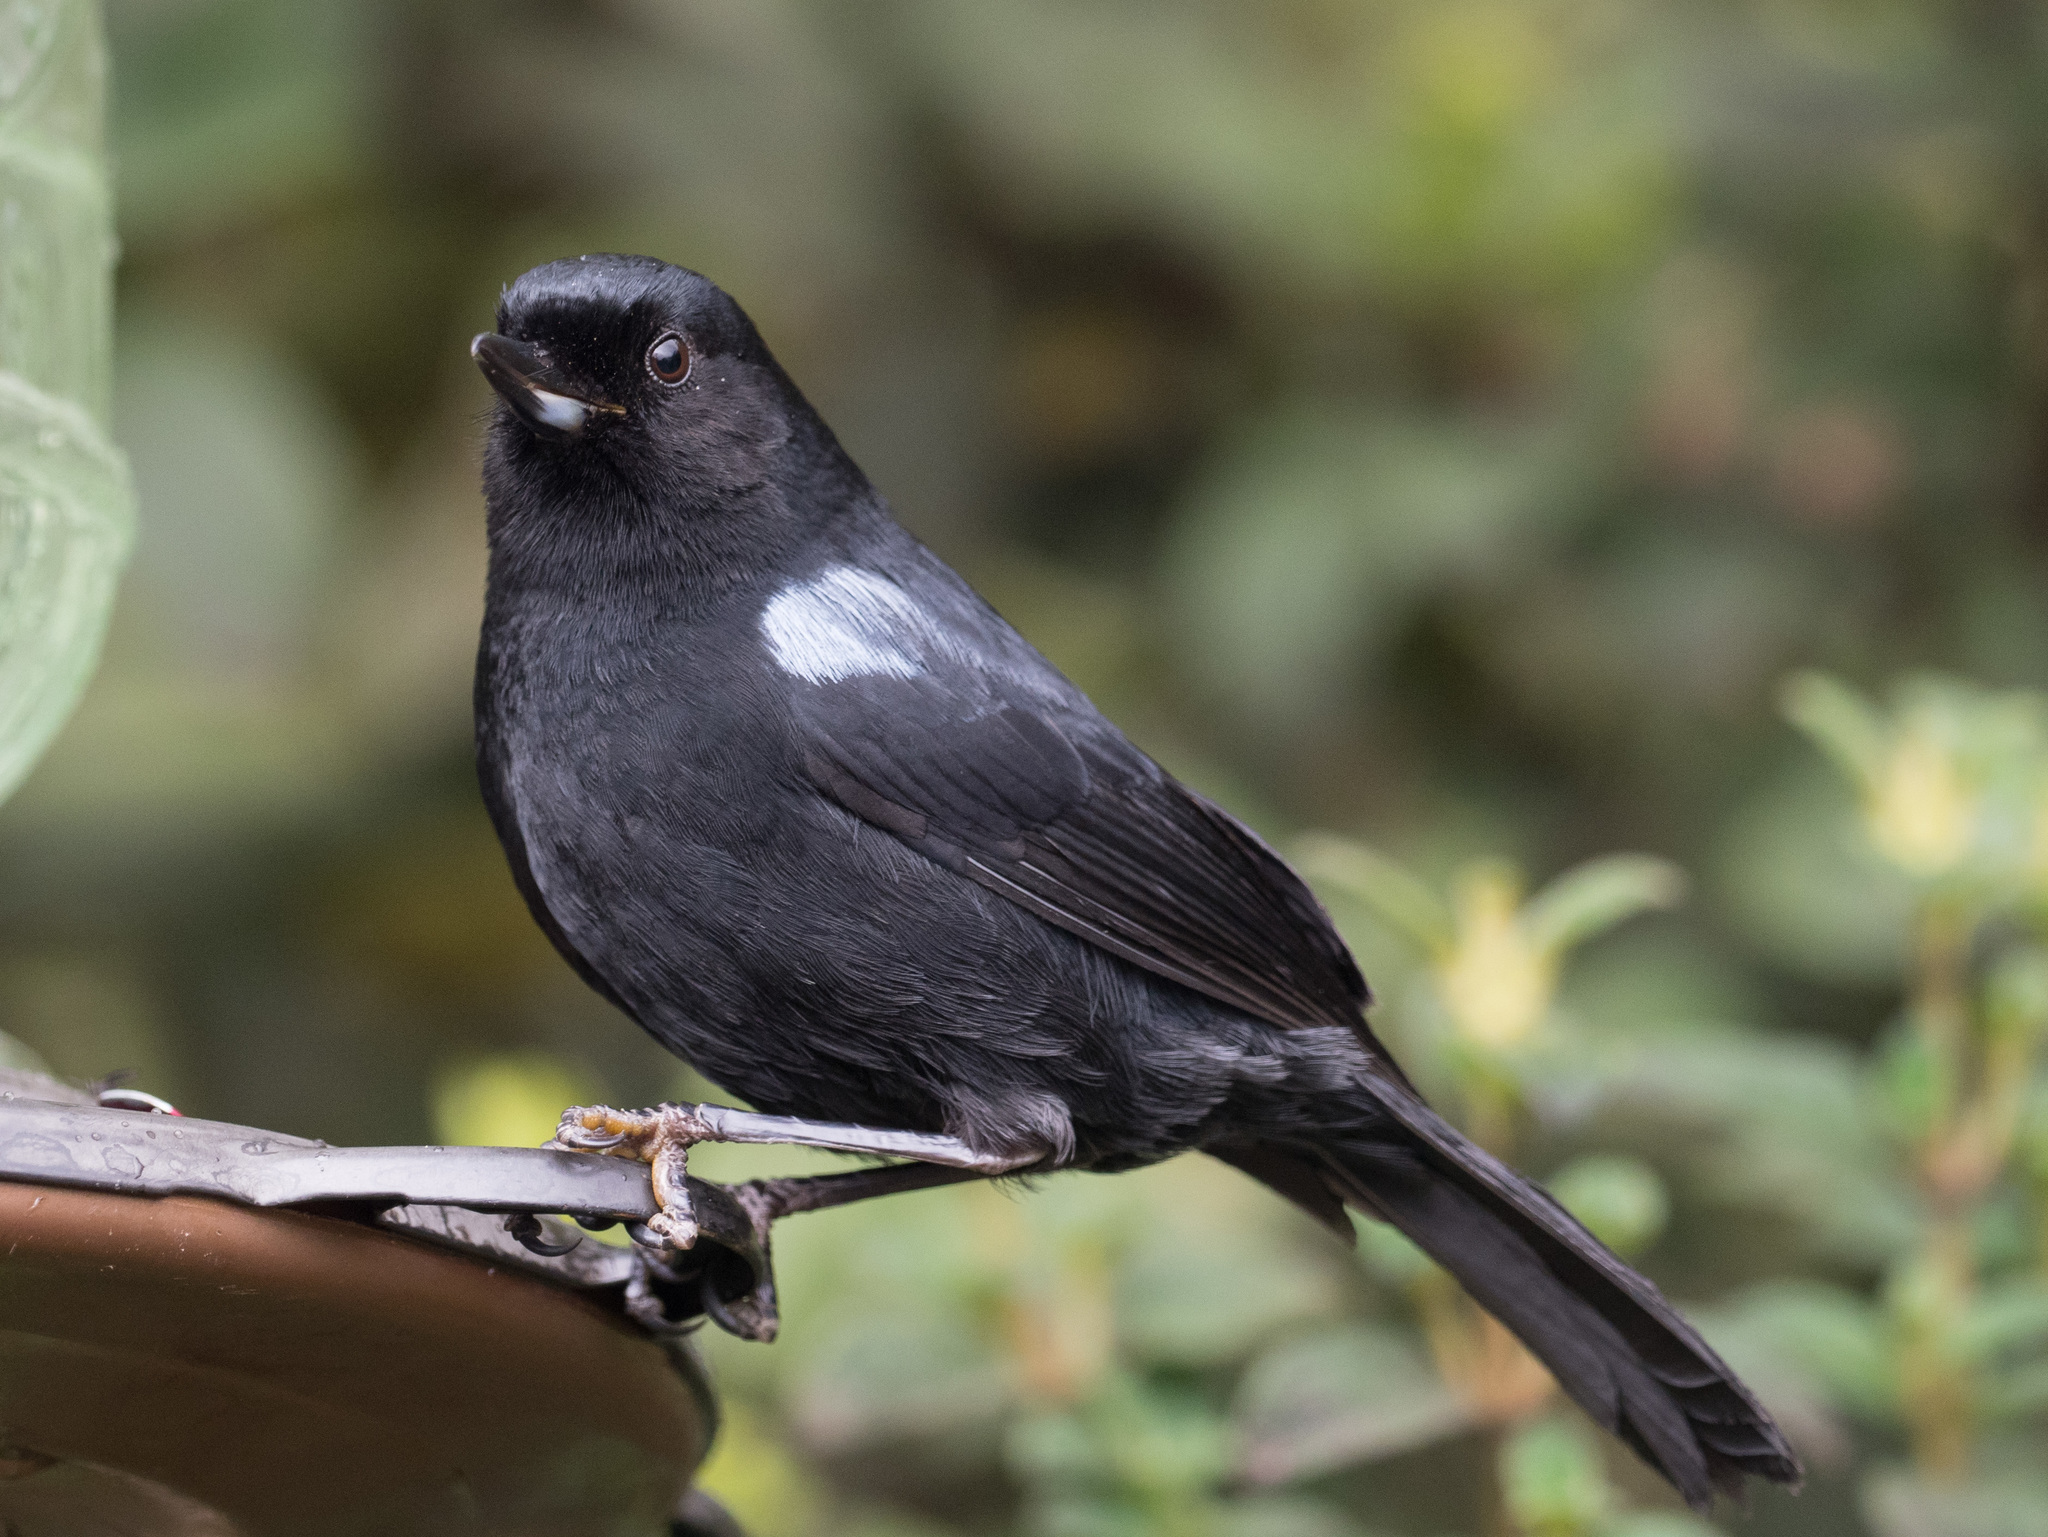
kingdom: Animalia
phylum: Chordata
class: Aves
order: Passeriformes
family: Thraupidae
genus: Diglossa
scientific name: Diglossa lafresnayii
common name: Glossy flowerpiercer
